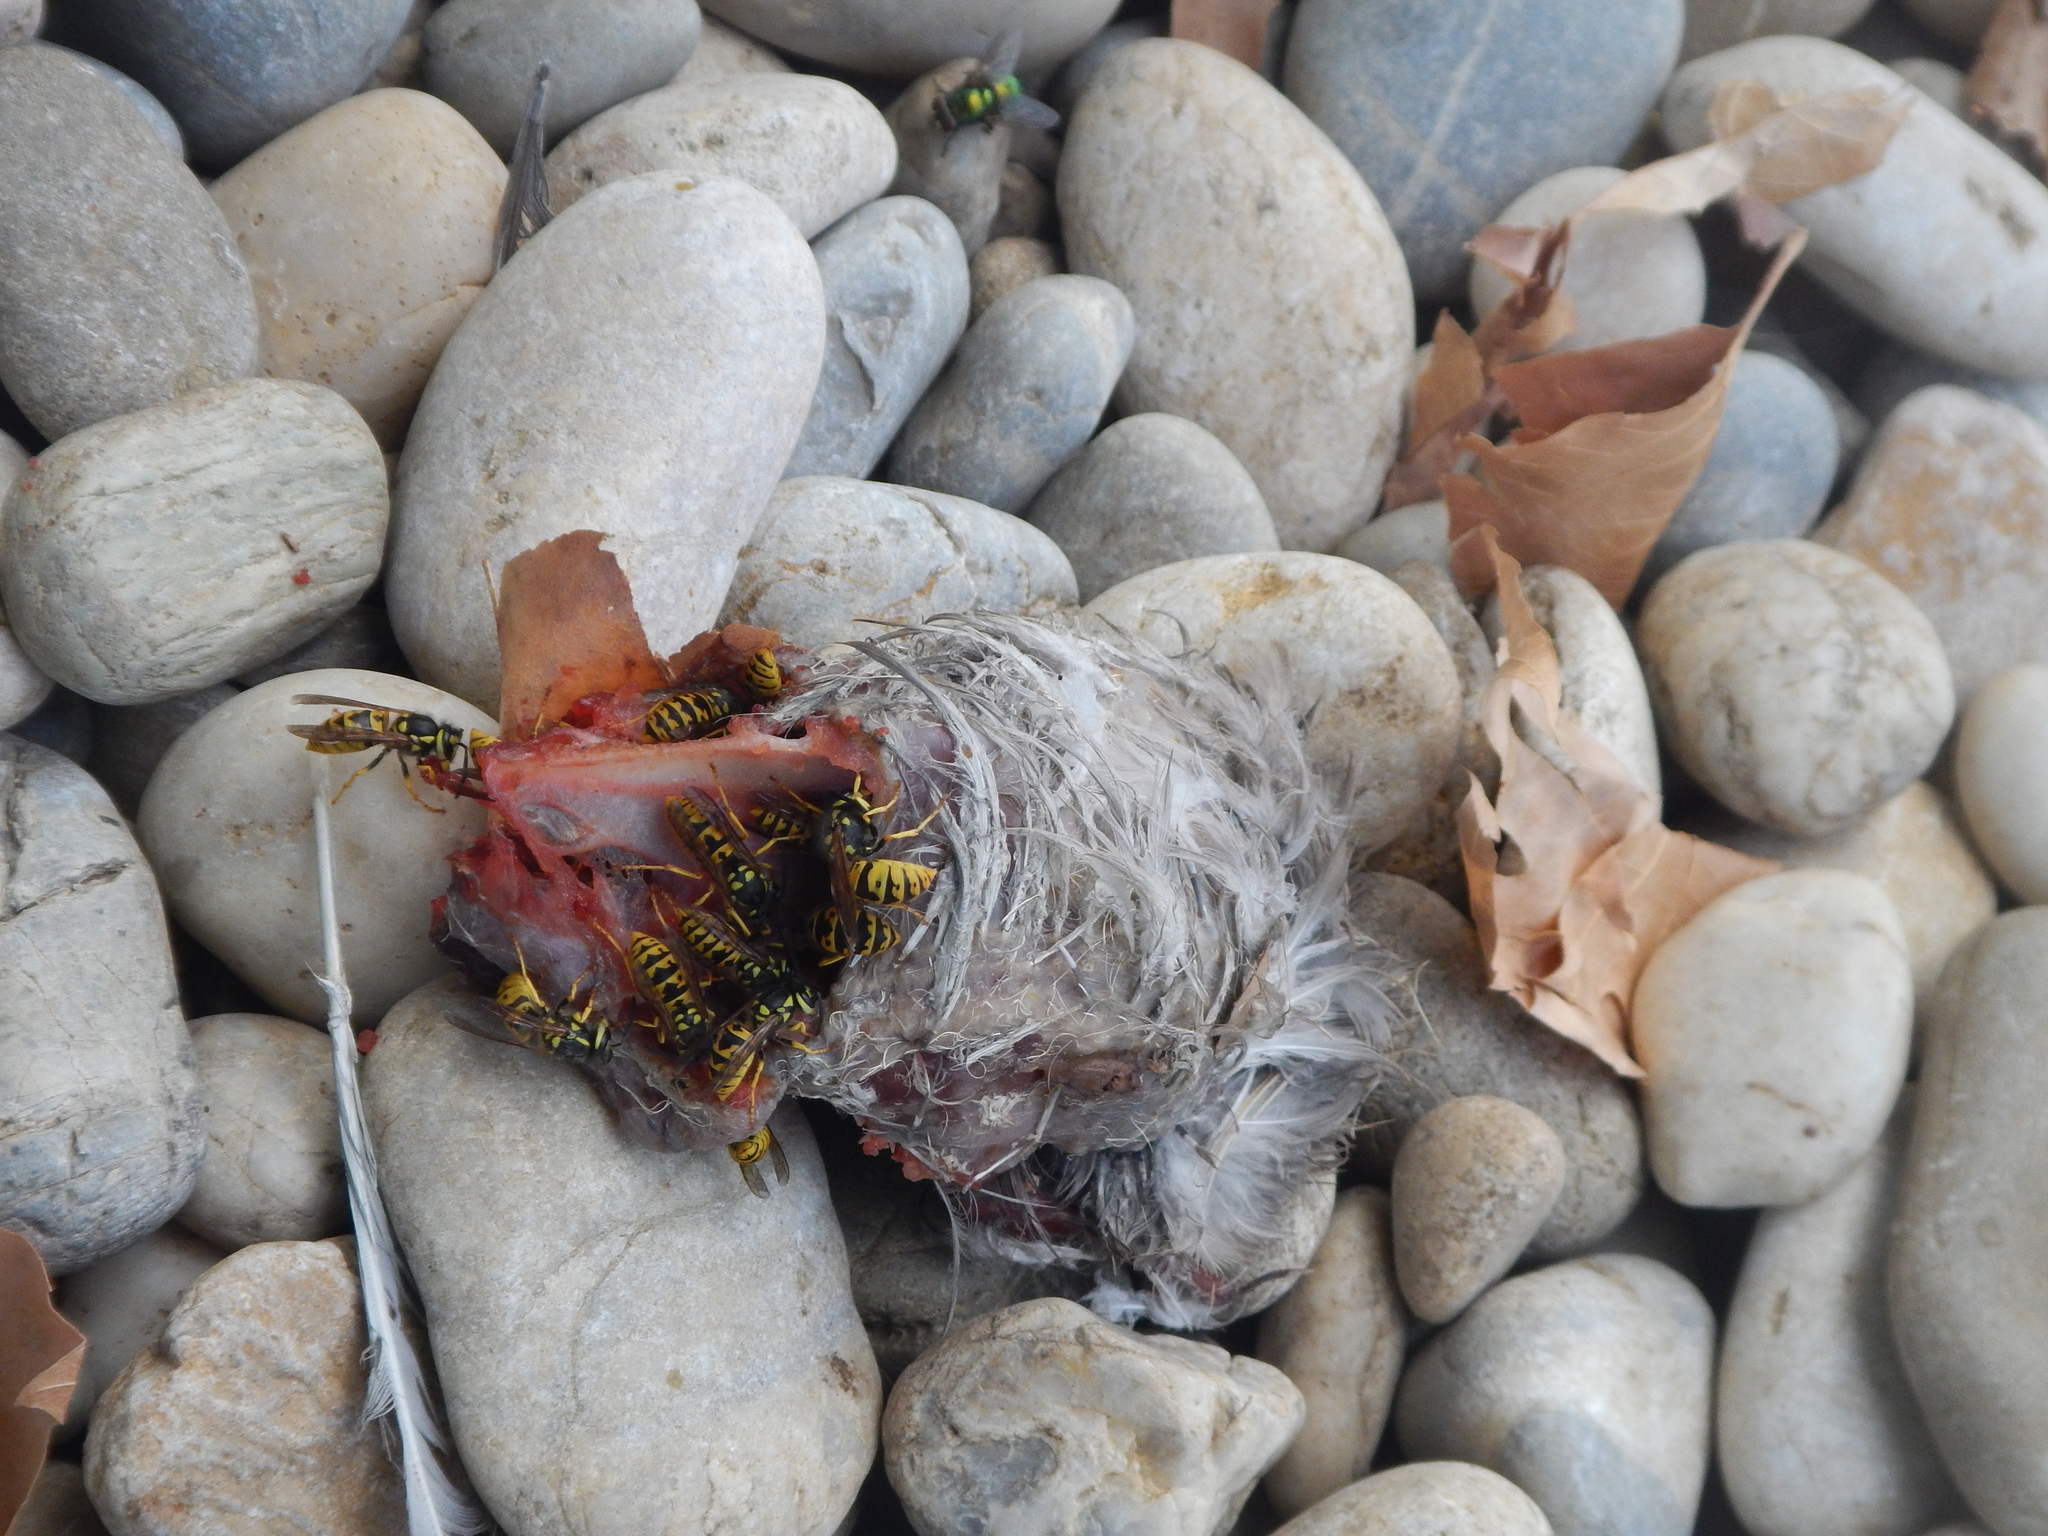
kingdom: Animalia
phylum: Arthropoda
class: Insecta
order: Hymenoptera
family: Vespidae
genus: Vespula
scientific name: Vespula germanica
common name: German wasp
